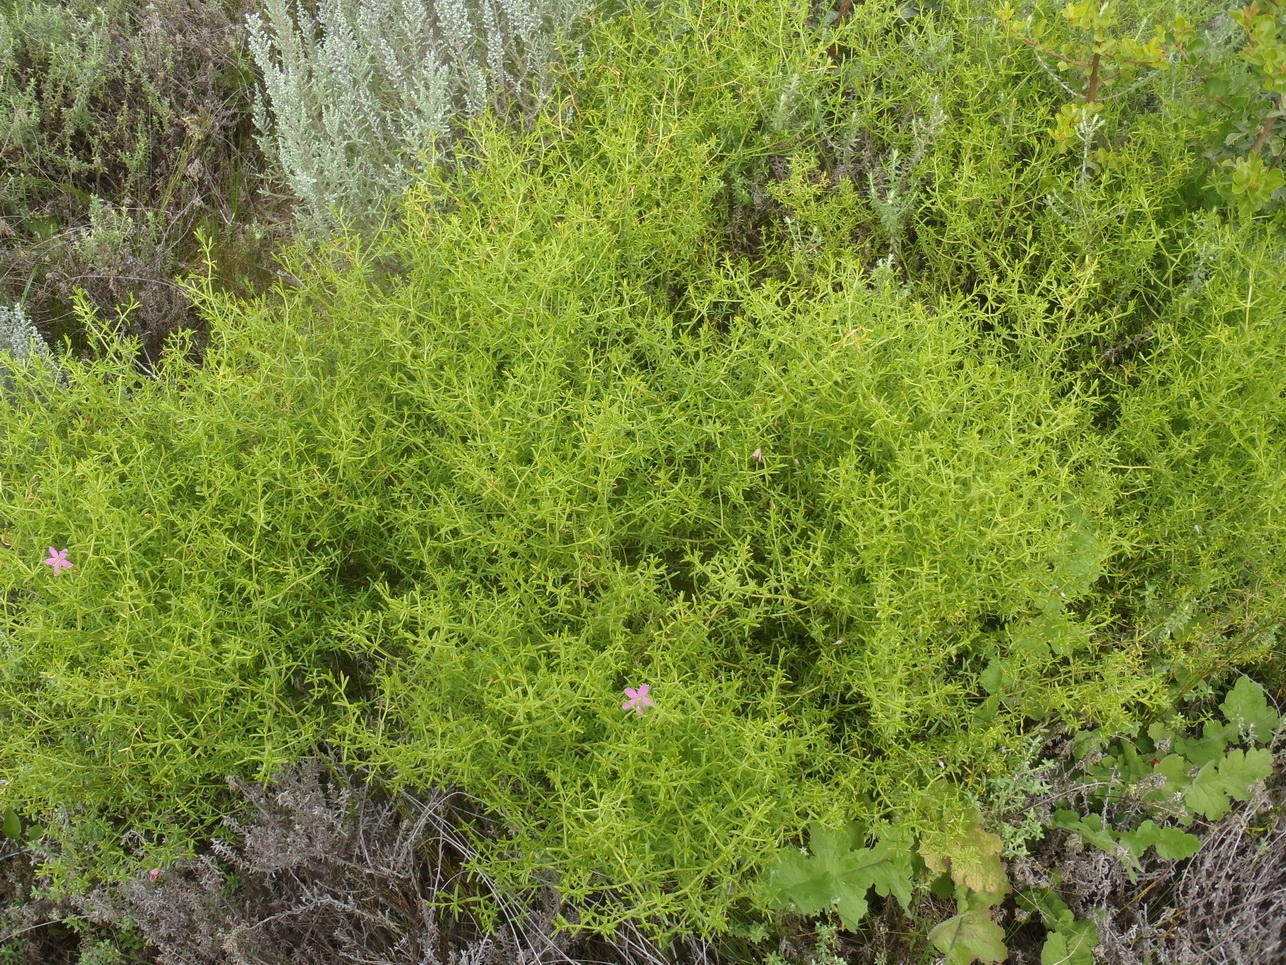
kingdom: Plantae
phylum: Tracheophyta
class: Magnoliopsida
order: Gentianales
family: Gentianaceae
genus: Chironia
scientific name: Chironia baccifera
